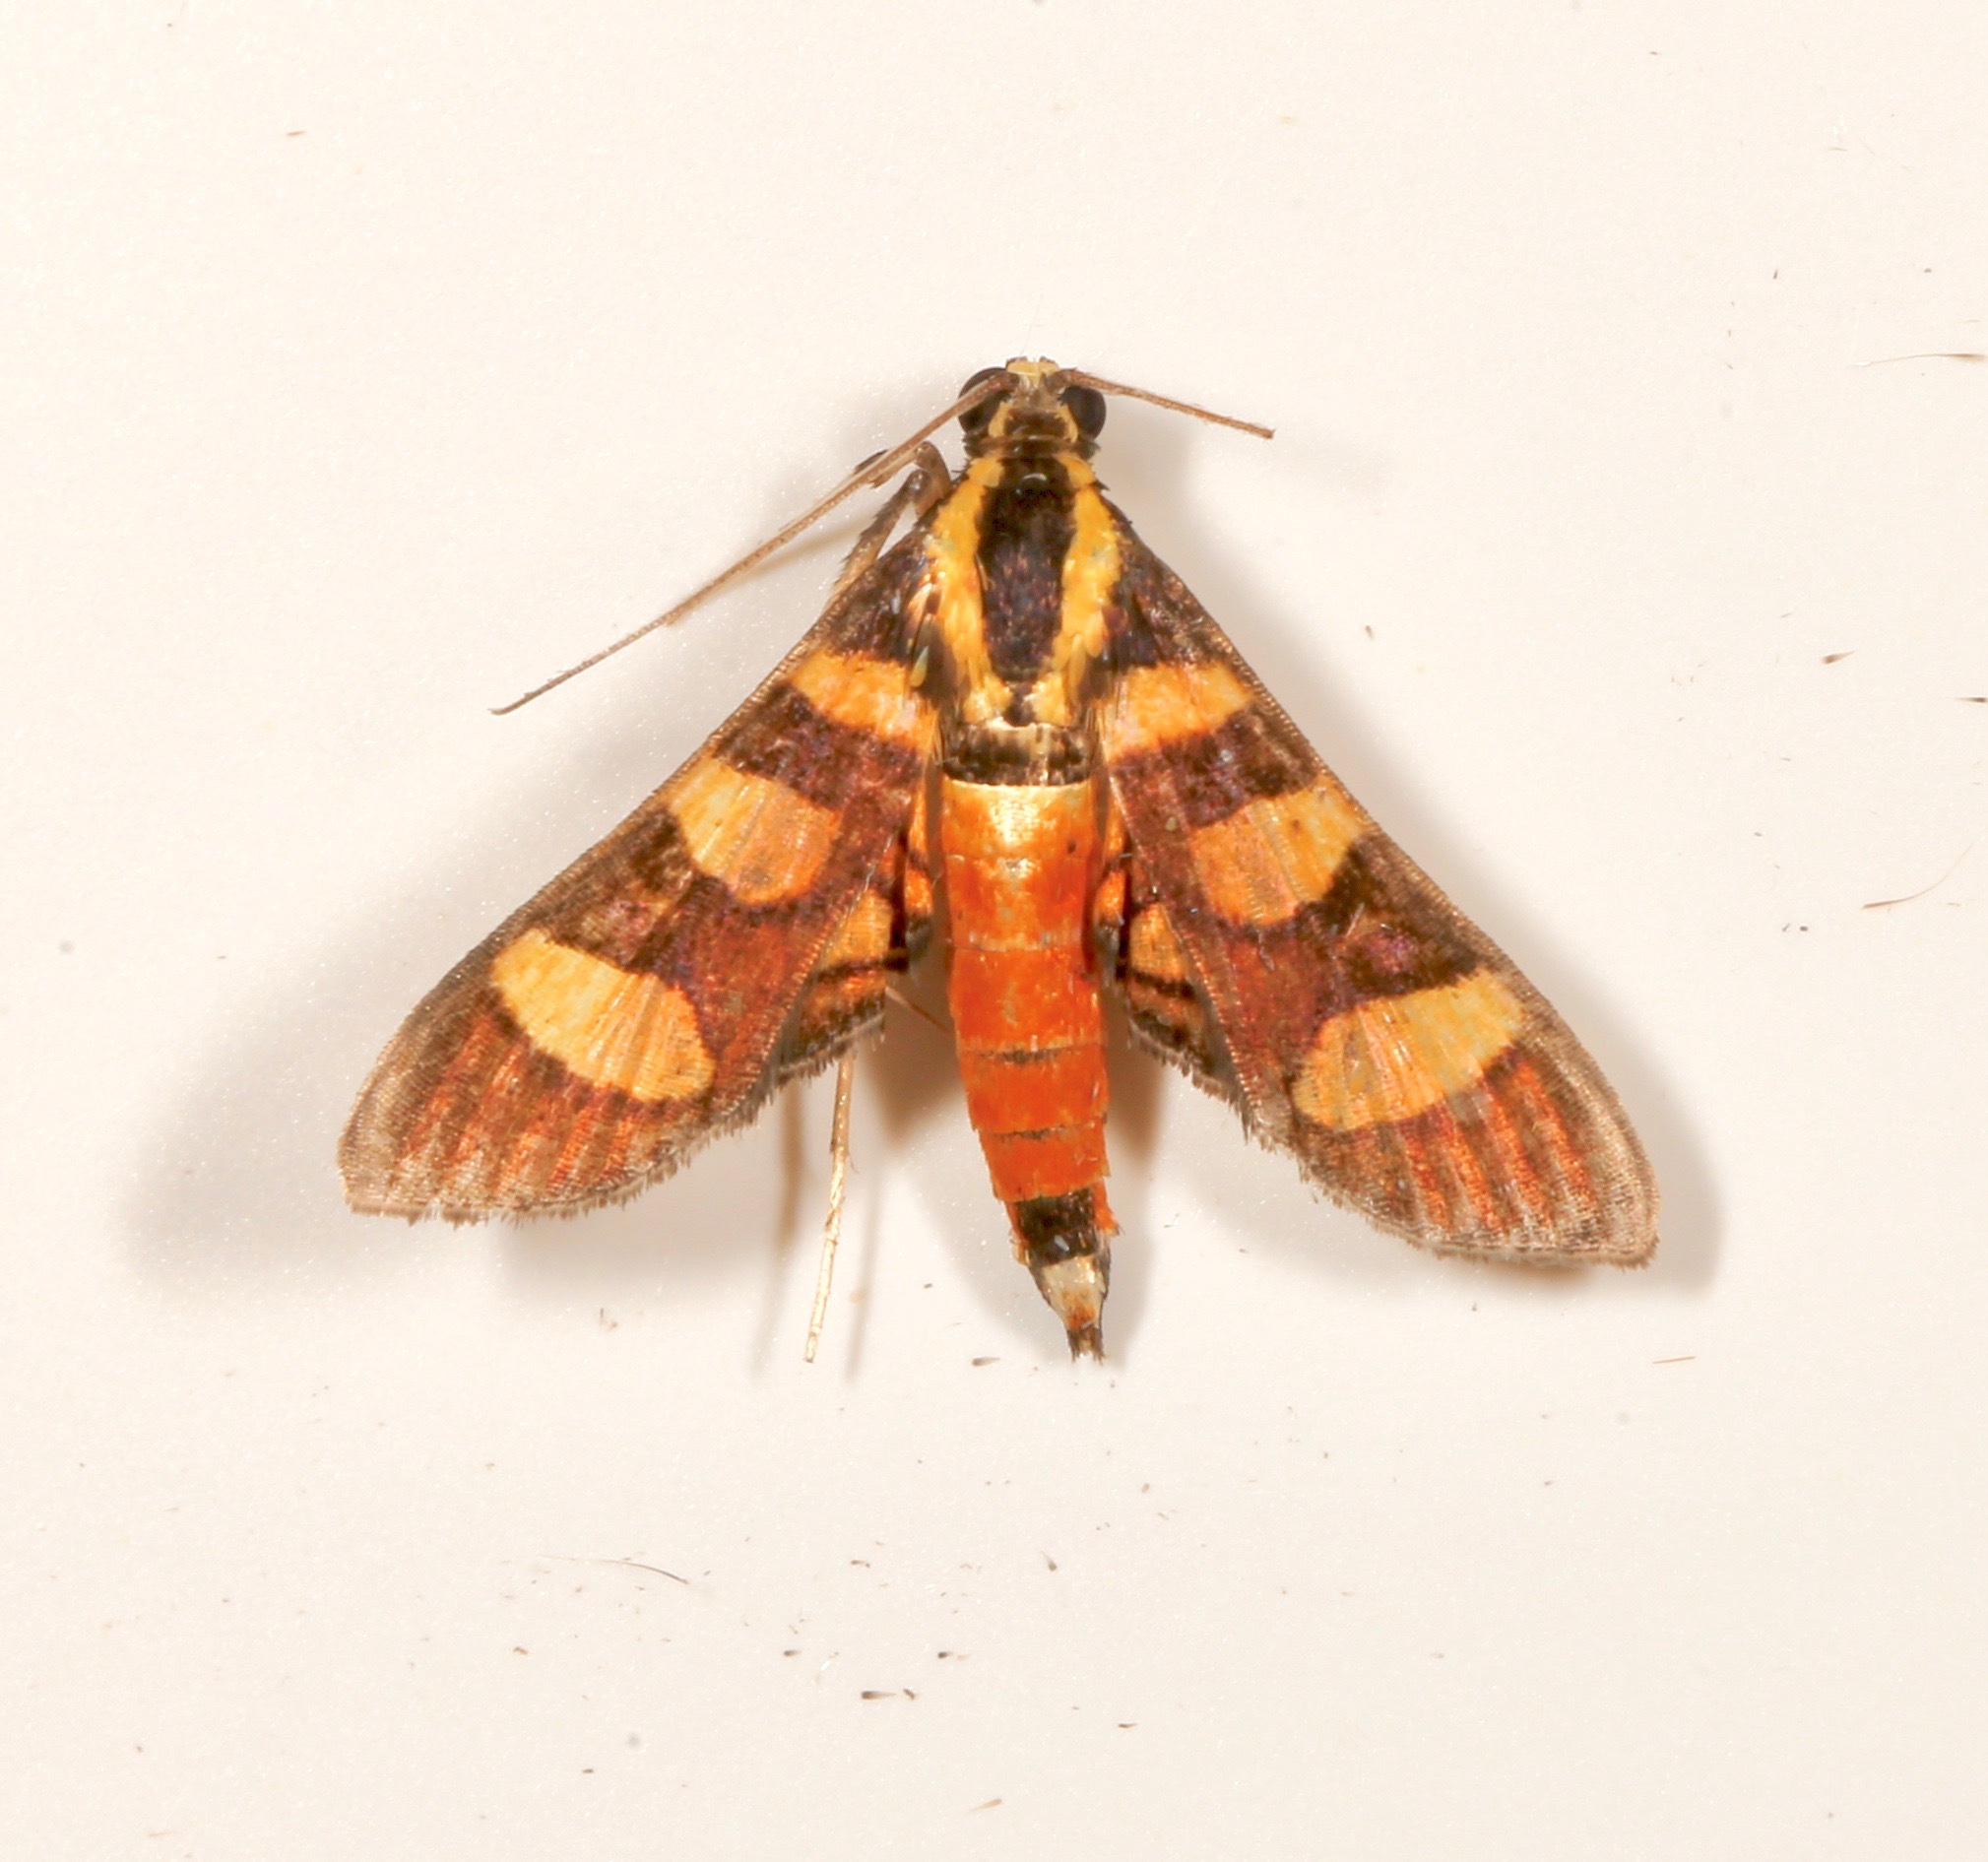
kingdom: Animalia
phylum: Arthropoda
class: Insecta
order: Lepidoptera
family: Crambidae
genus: Syngamia
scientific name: Syngamia florella
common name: Orange-spotted flower moth
